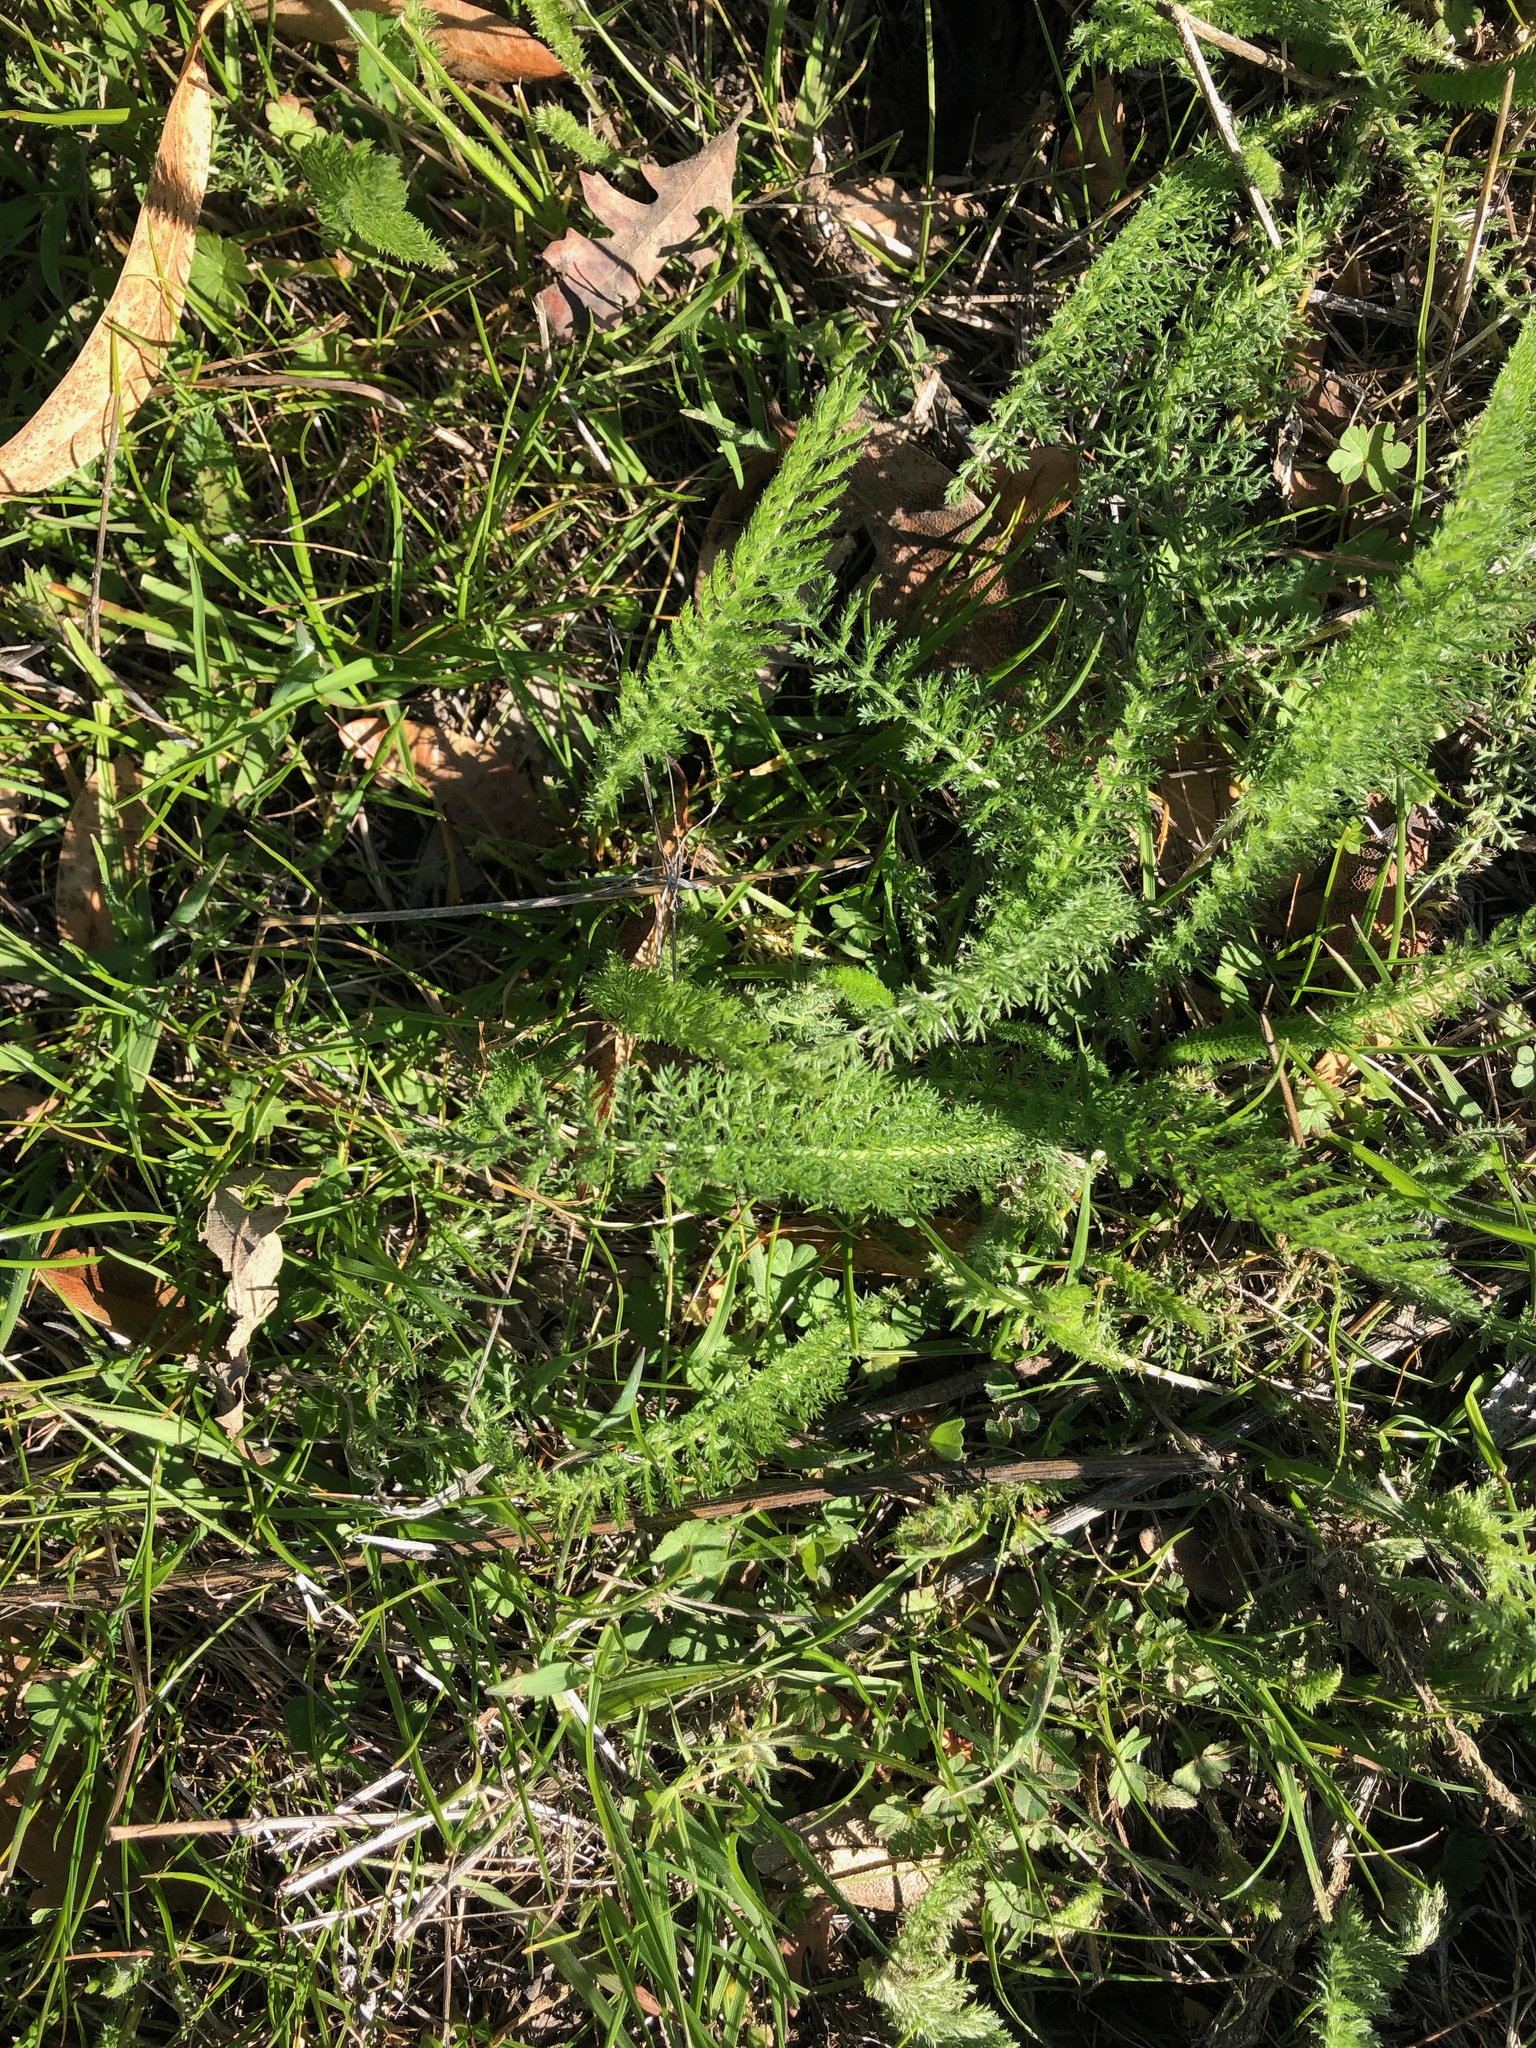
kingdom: Plantae
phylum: Tracheophyta
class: Magnoliopsida
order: Asterales
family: Asteraceae
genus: Achillea
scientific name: Achillea millefolium
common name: Yarrow
